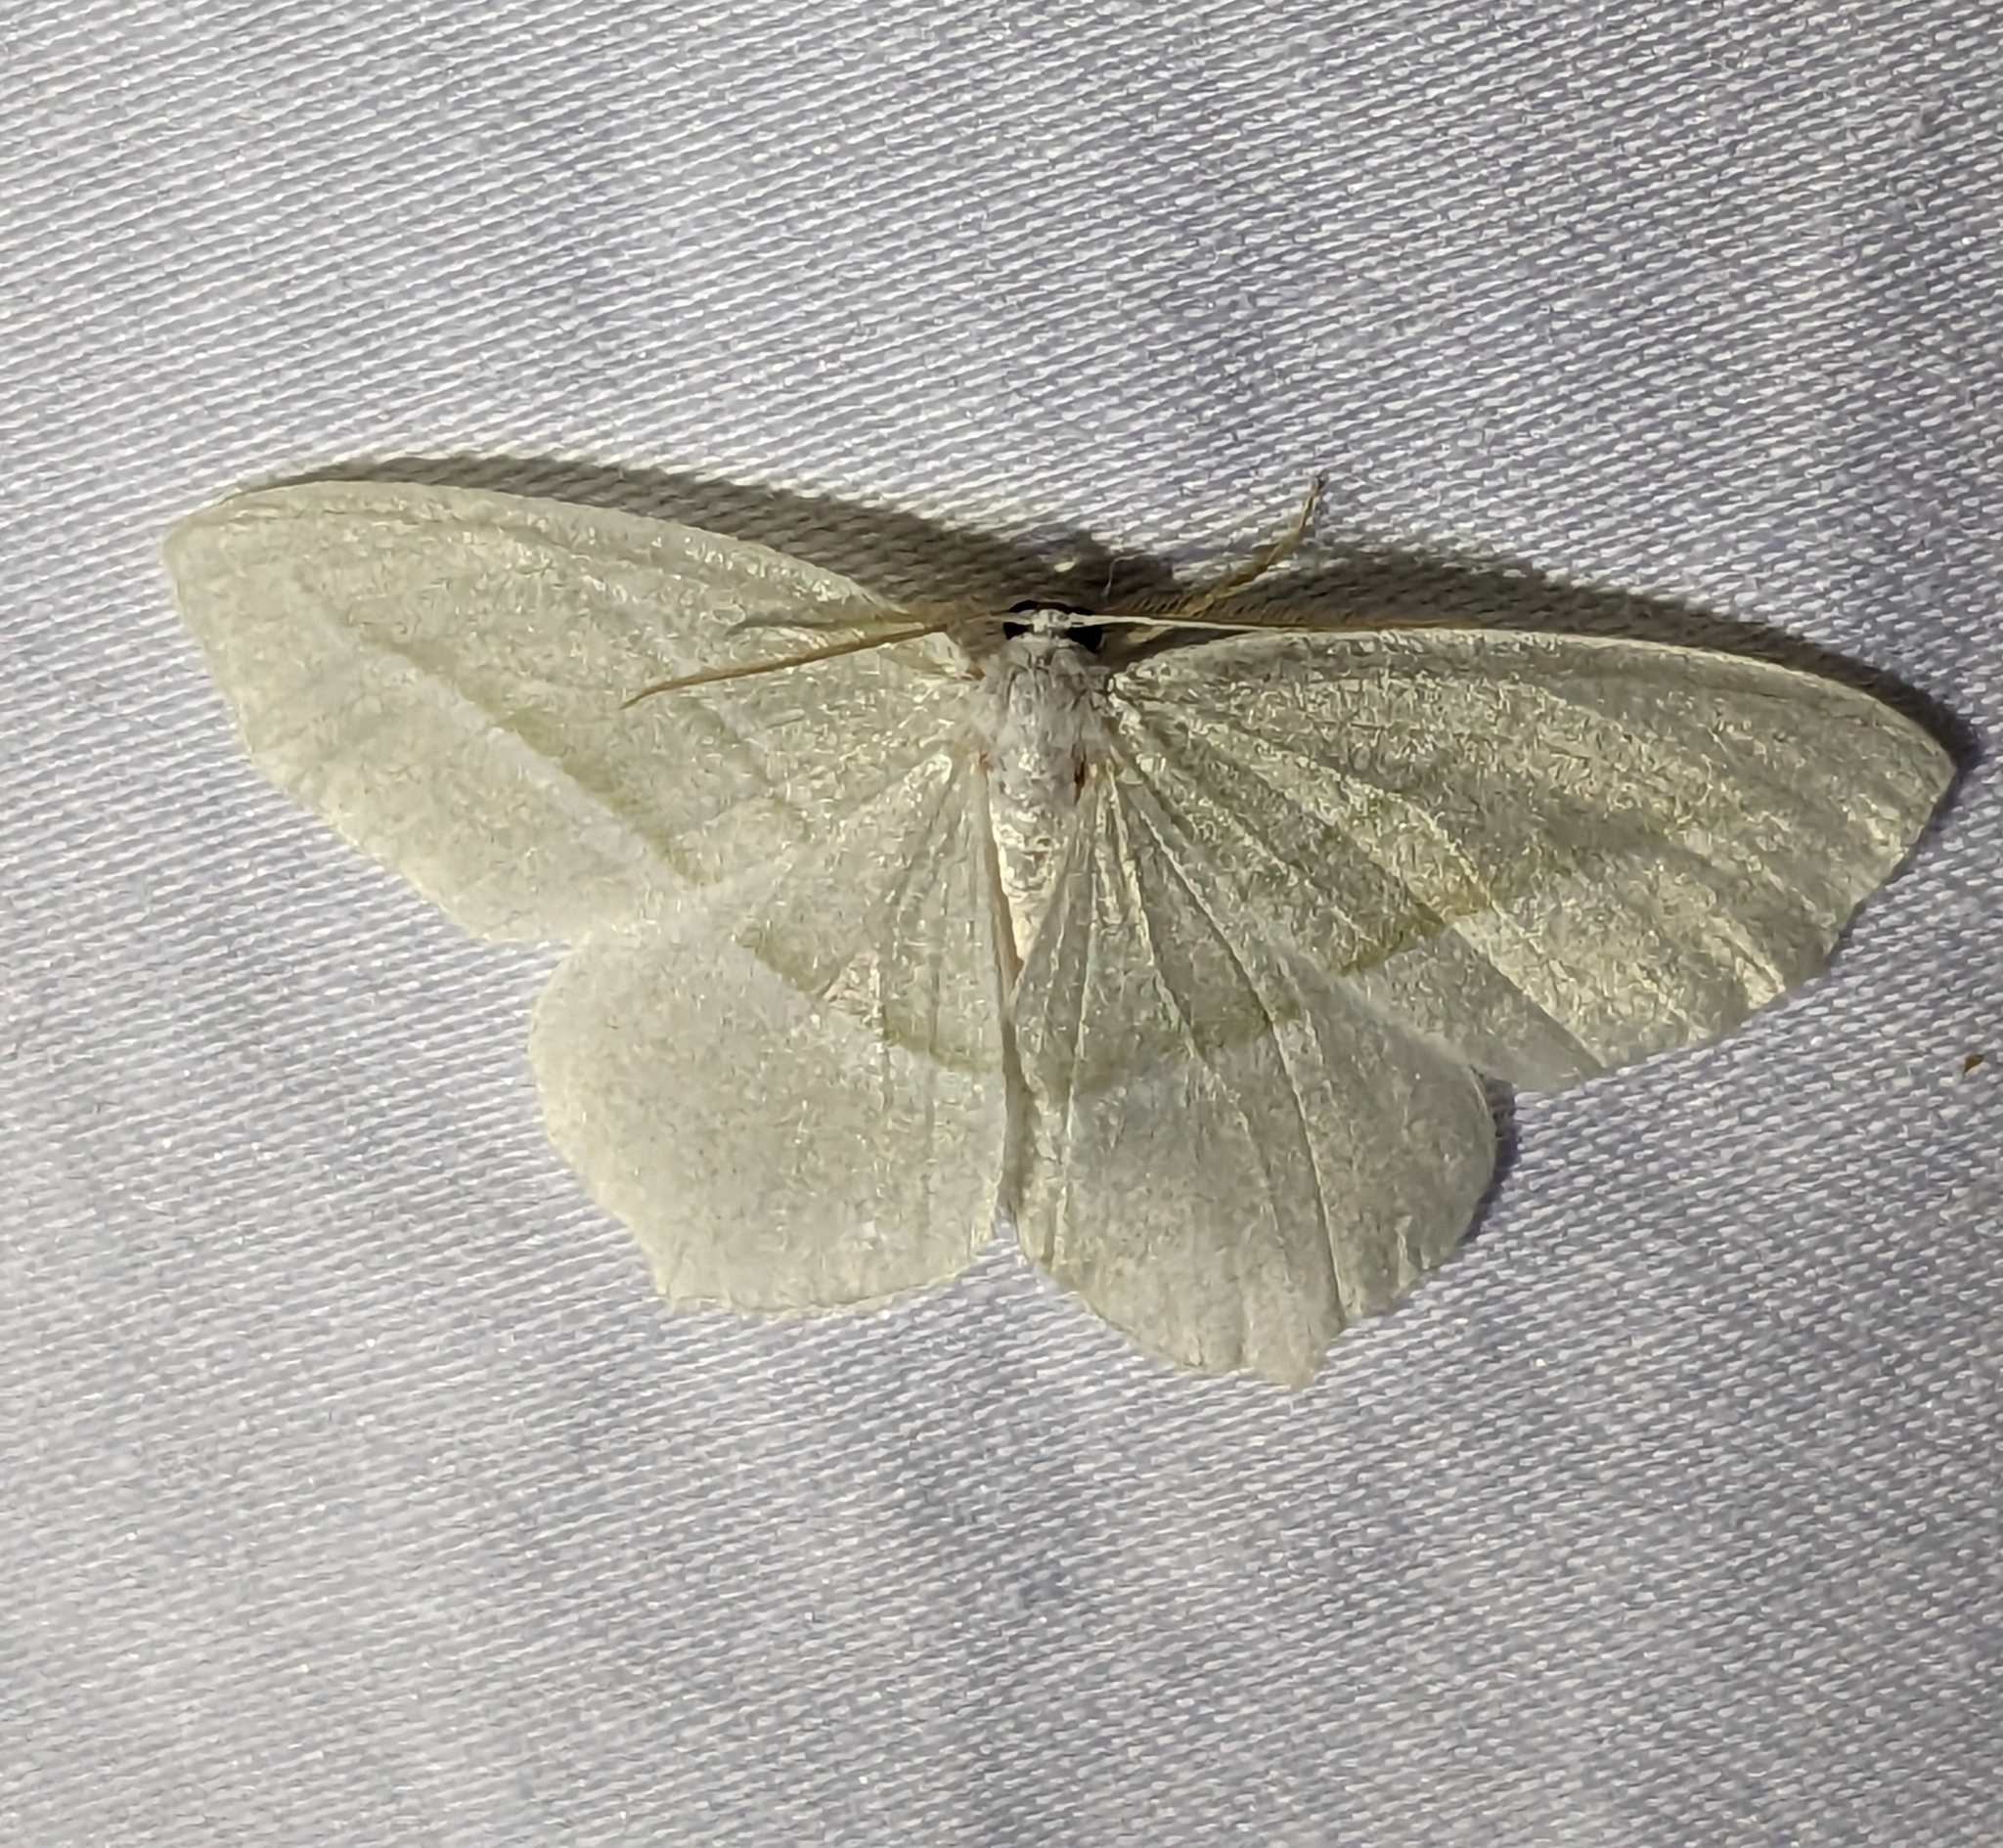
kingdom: Animalia
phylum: Arthropoda
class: Insecta
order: Lepidoptera
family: Geometridae
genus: Campaea
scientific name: Campaea perlata
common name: Fringed looper
